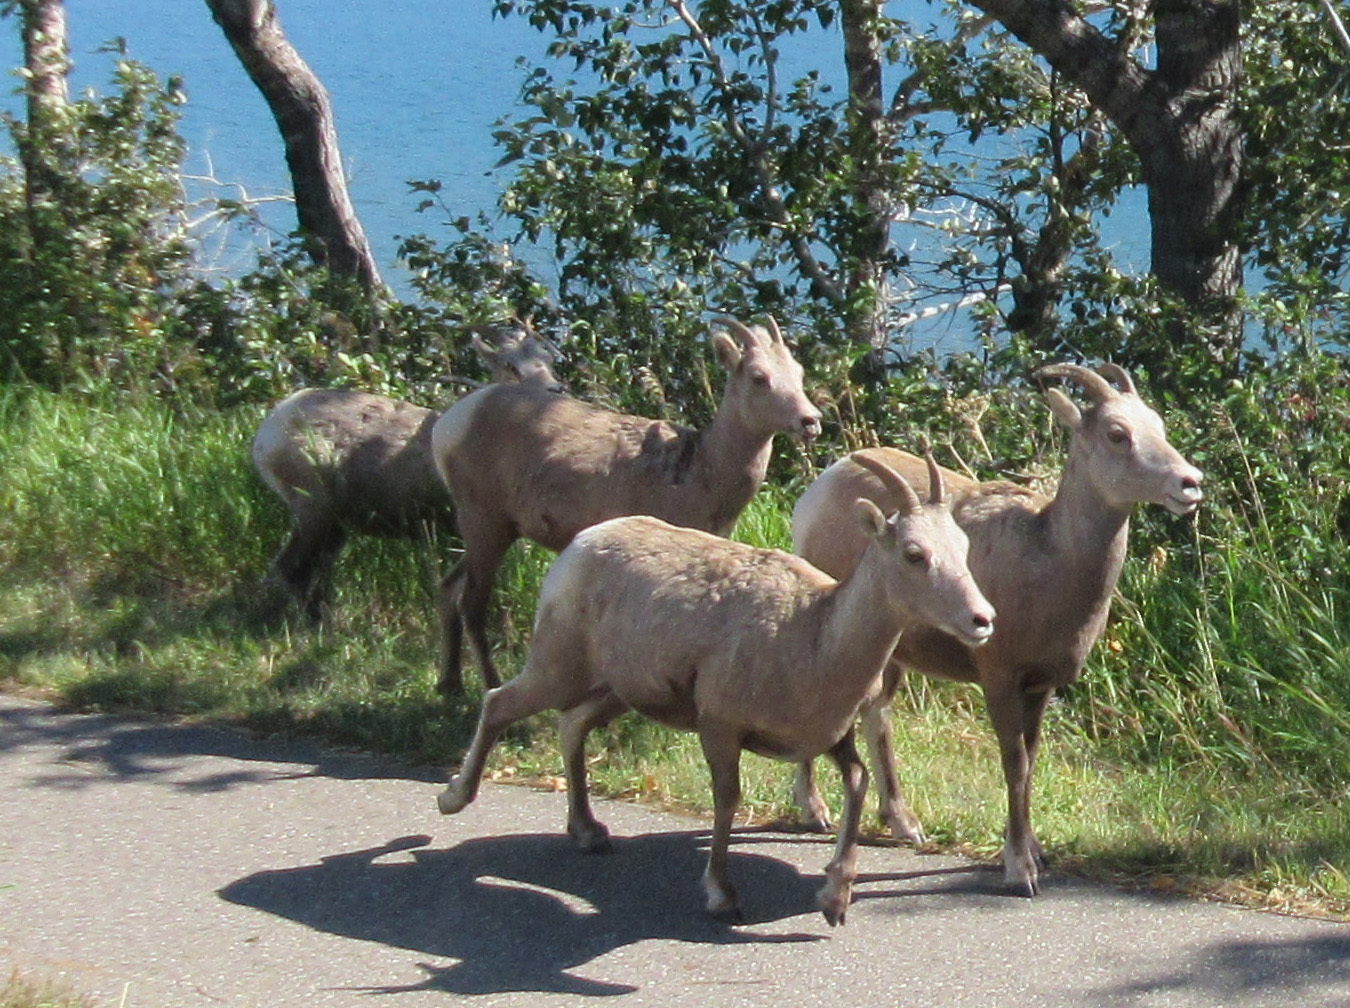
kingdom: Animalia
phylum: Chordata
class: Mammalia
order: Artiodactyla
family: Bovidae
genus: Ovis
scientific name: Ovis canadensis
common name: Bighorn sheep
